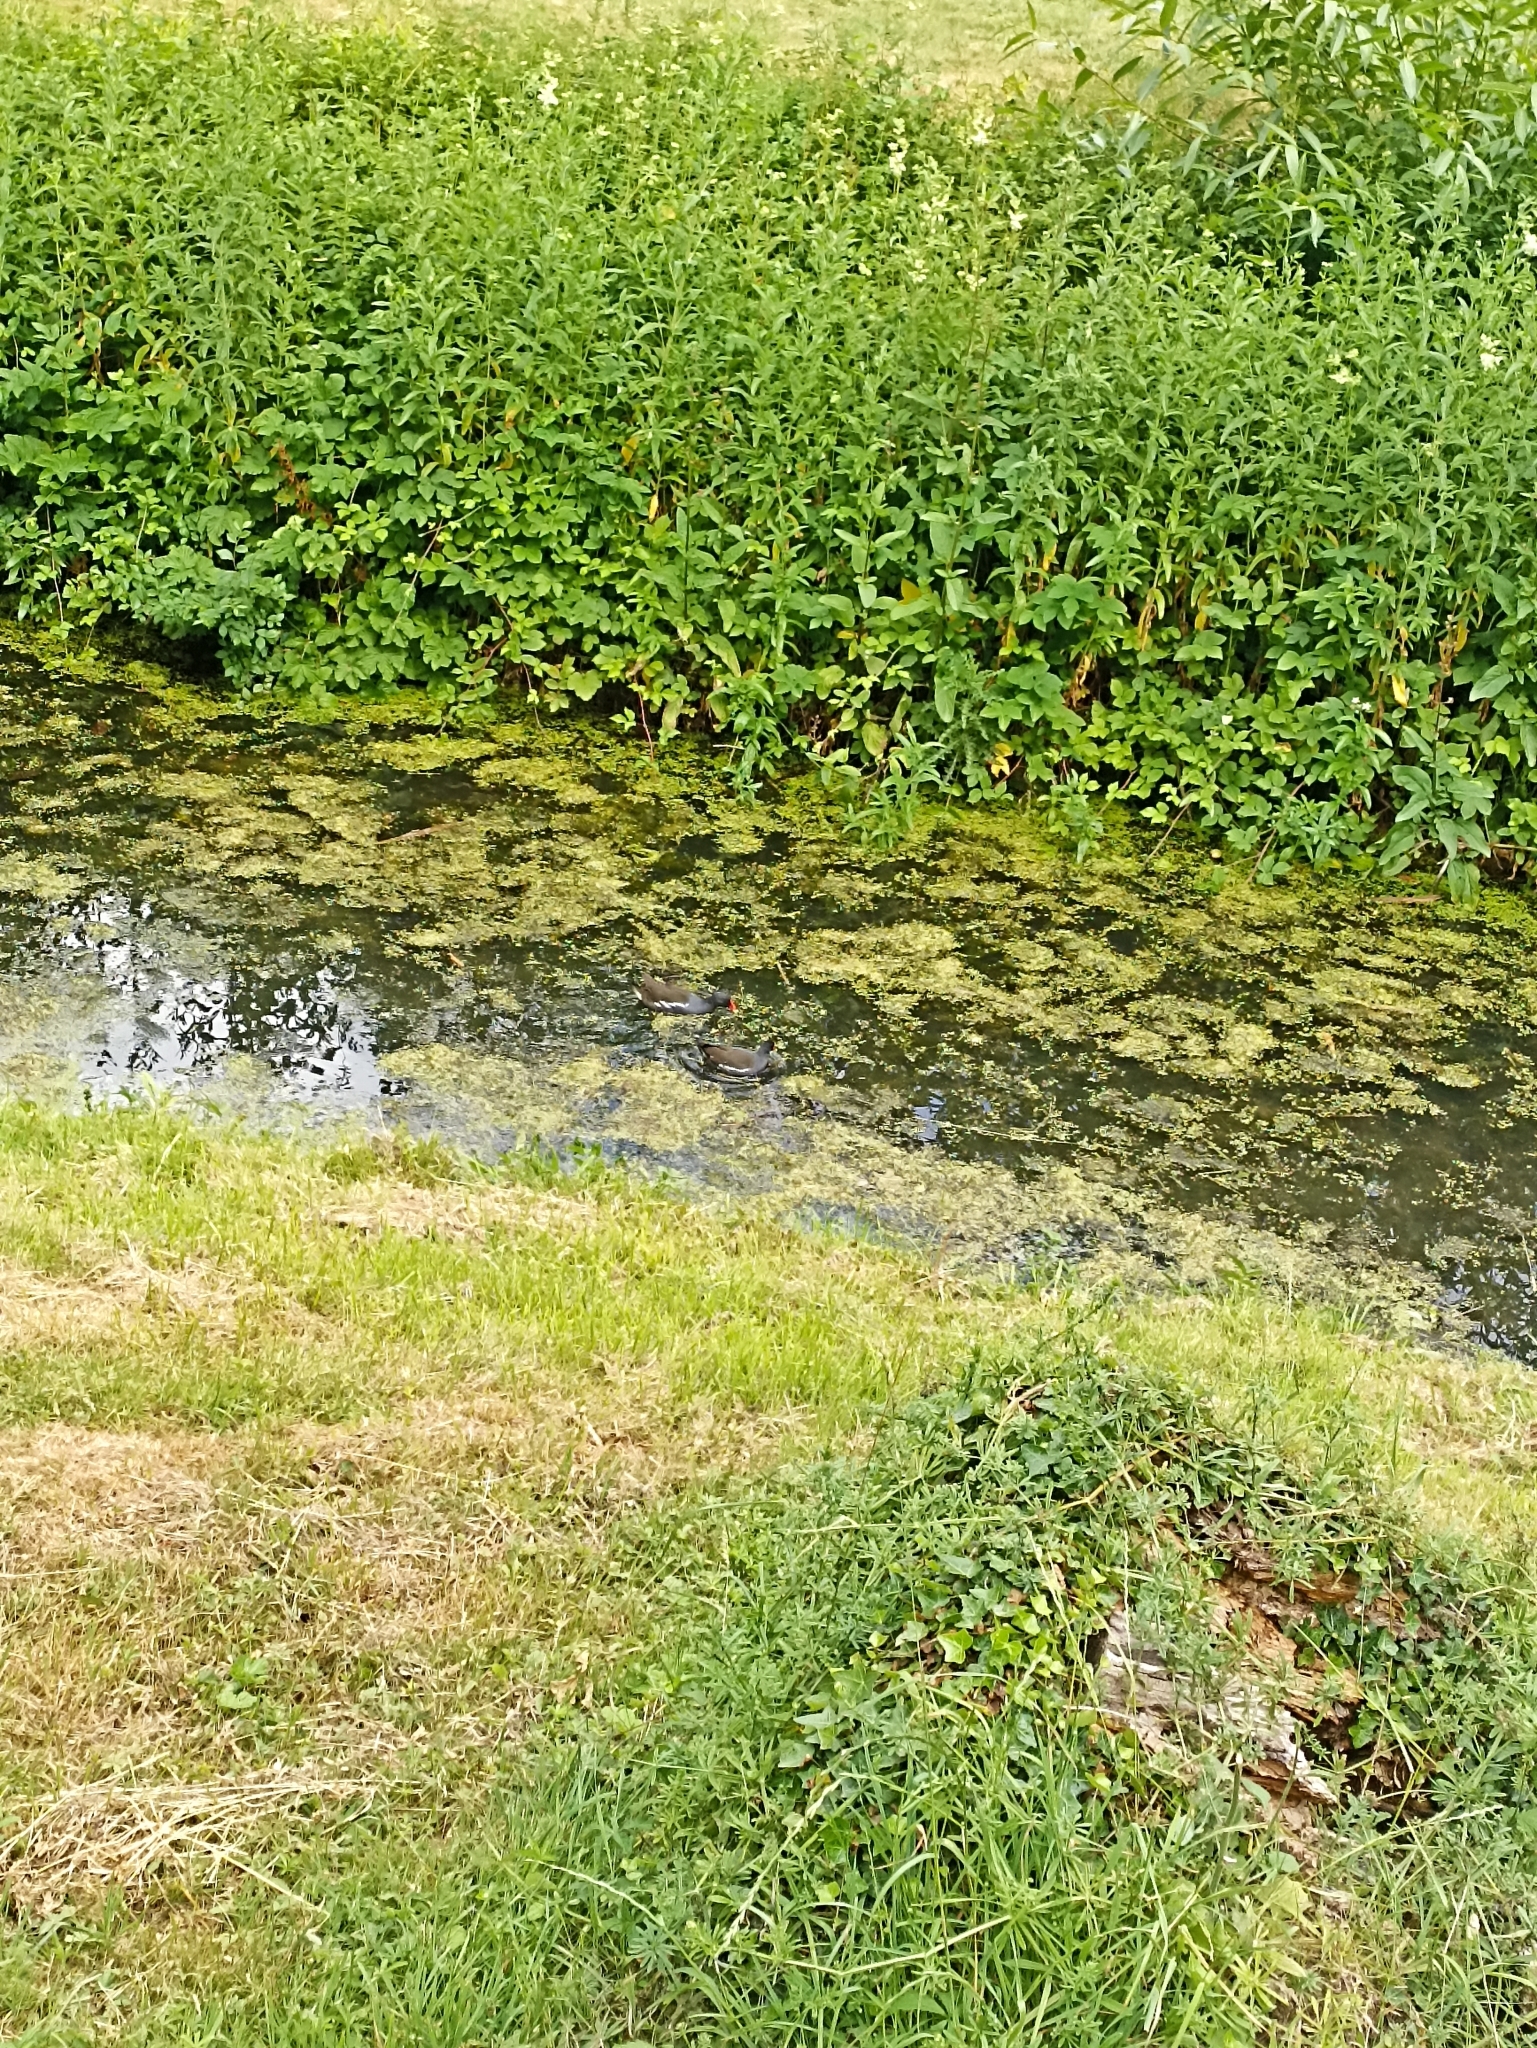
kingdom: Animalia
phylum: Chordata
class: Aves
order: Gruiformes
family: Rallidae
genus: Gallinula
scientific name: Gallinula chloropus
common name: Common moorhen
